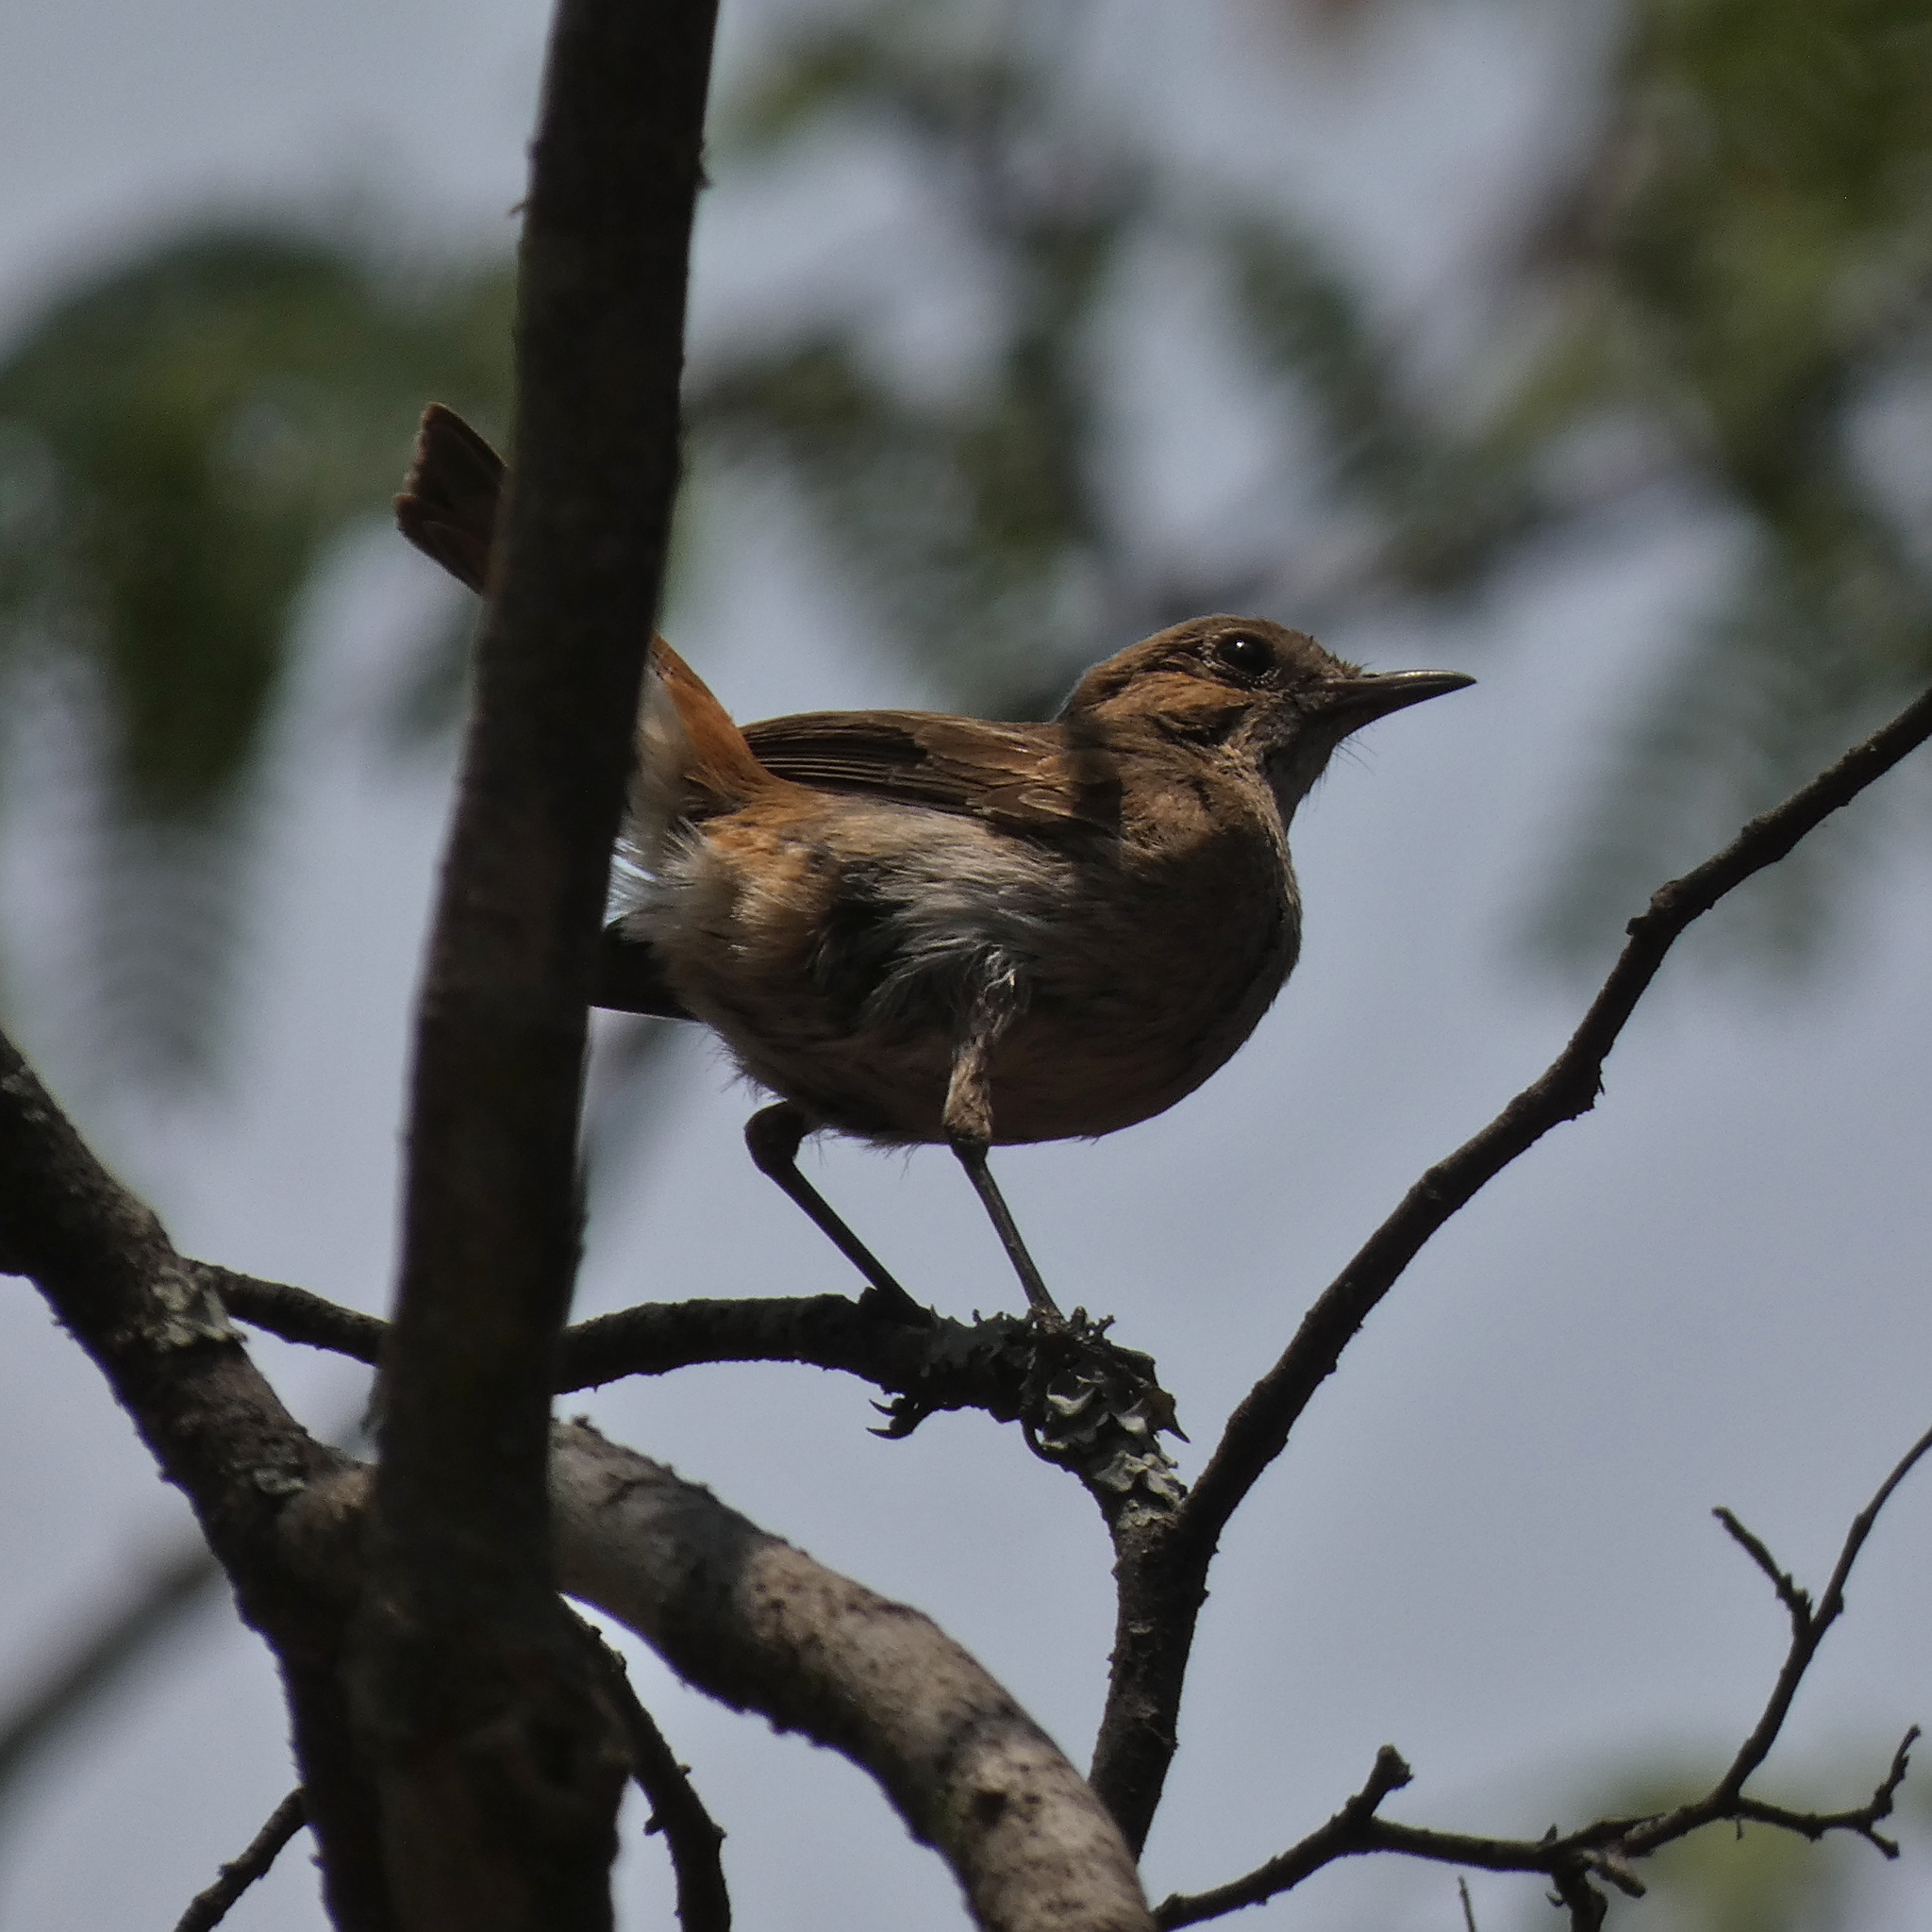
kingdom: Animalia
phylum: Chordata
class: Aves
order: Passeriformes
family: Muscicapidae
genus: Oenanthe
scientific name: Oenanthe familiaris
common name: Familiar chat
